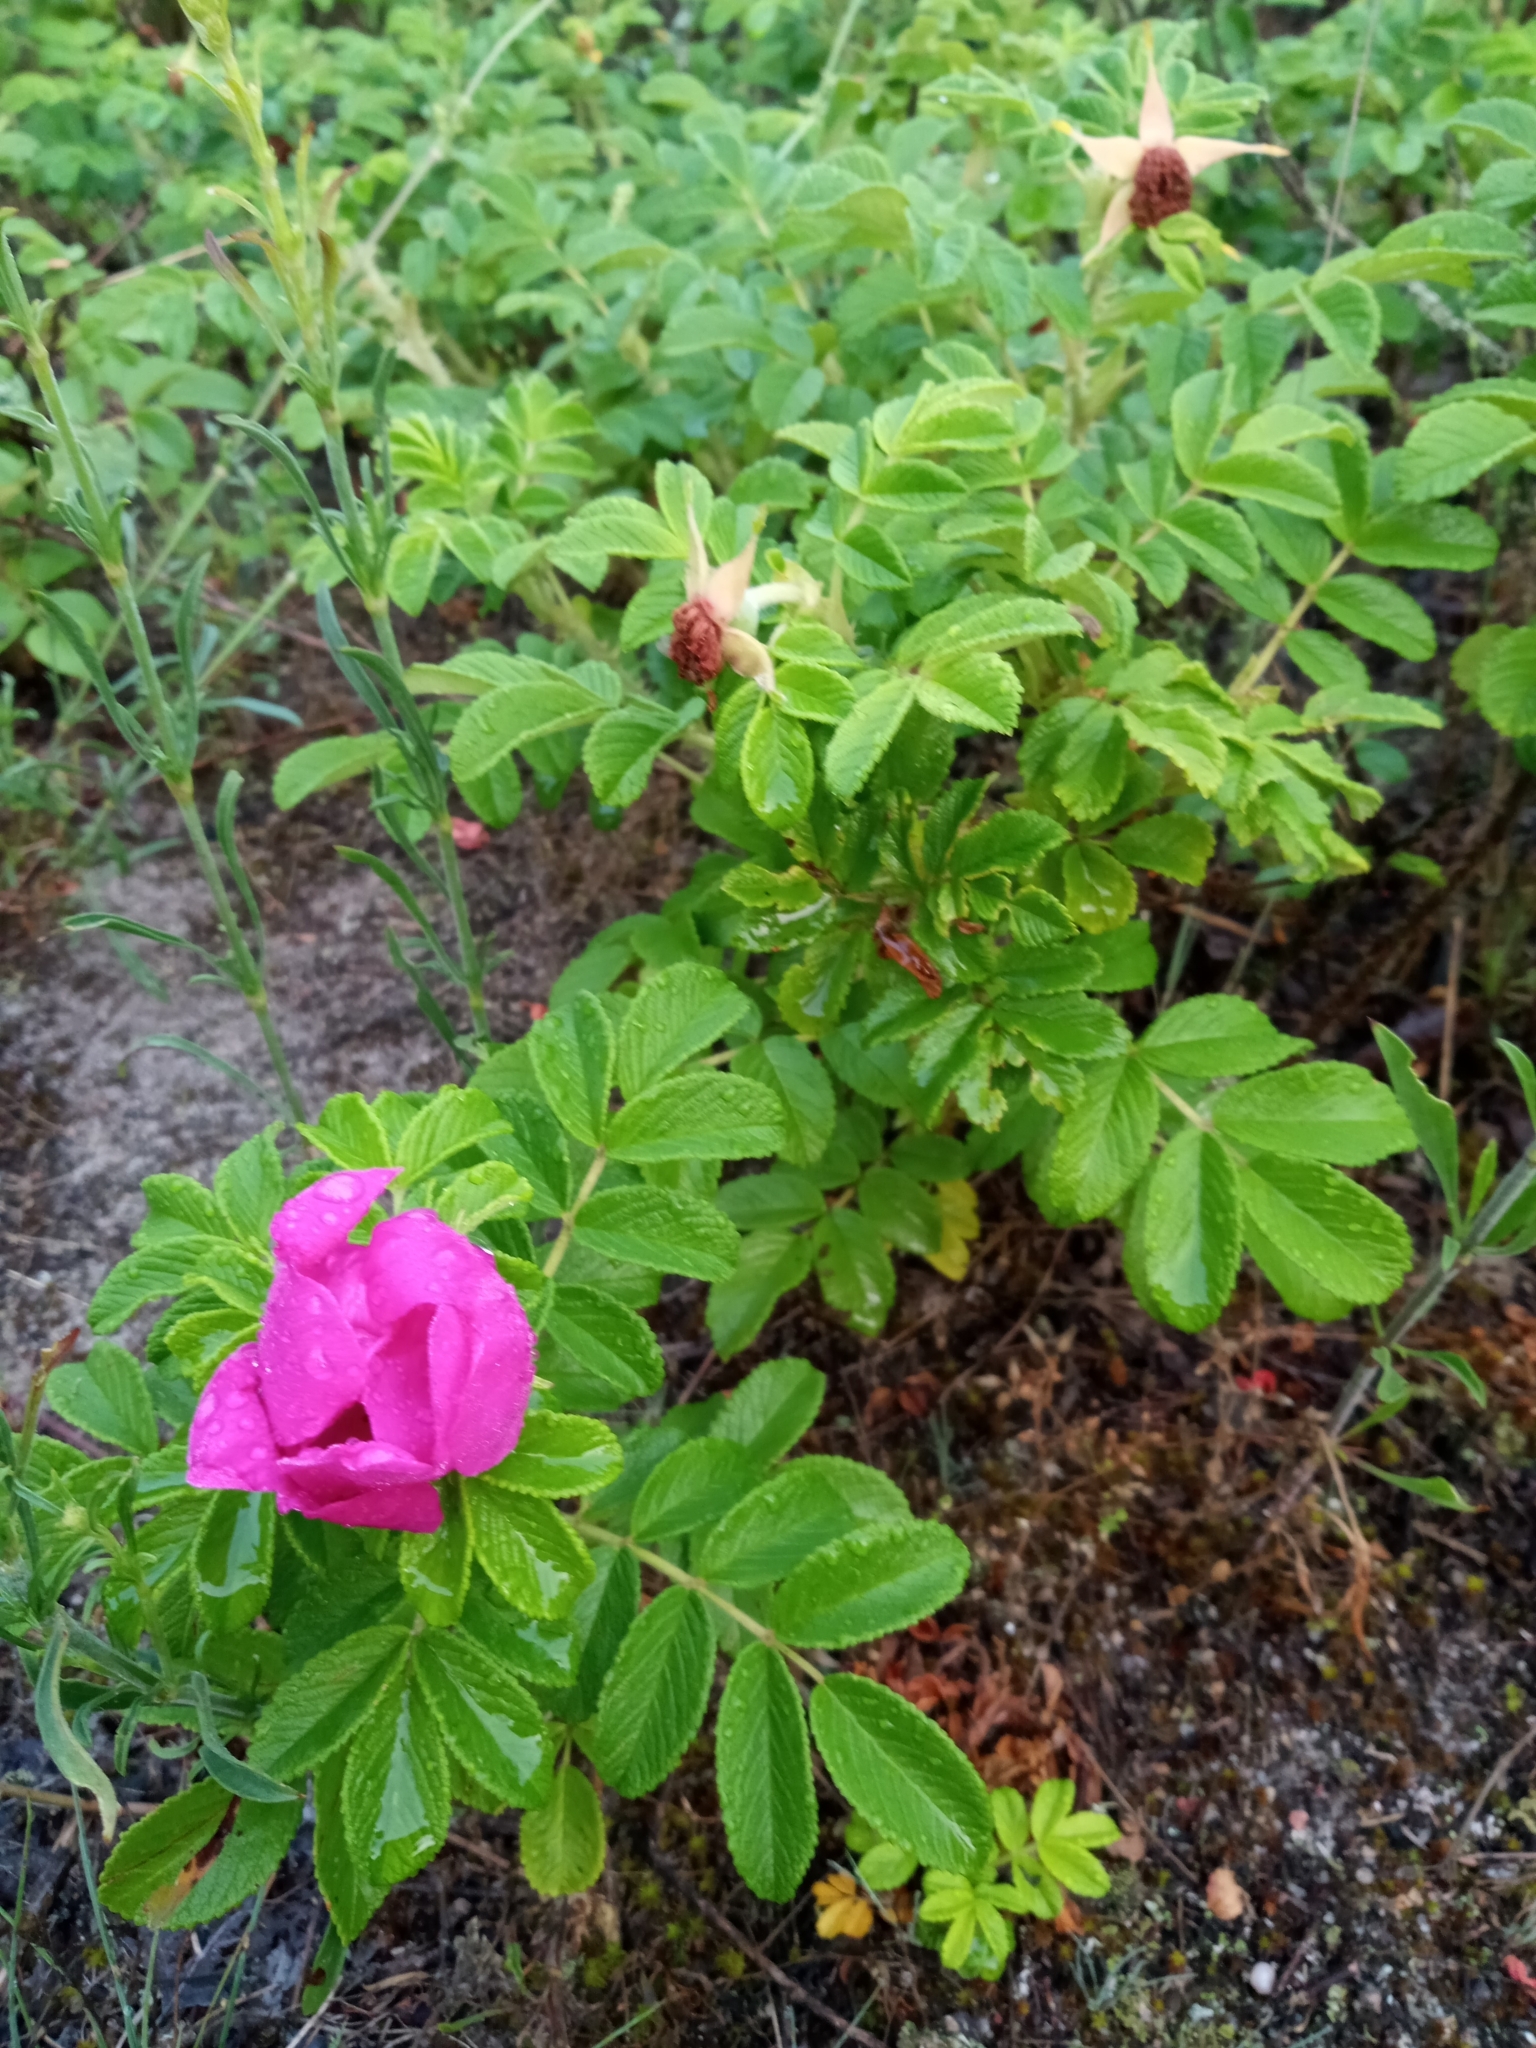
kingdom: Plantae
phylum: Tracheophyta
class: Magnoliopsida
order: Rosales
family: Rosaceae
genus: Rosa
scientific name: Rosa rugosa
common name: Japanese rose
